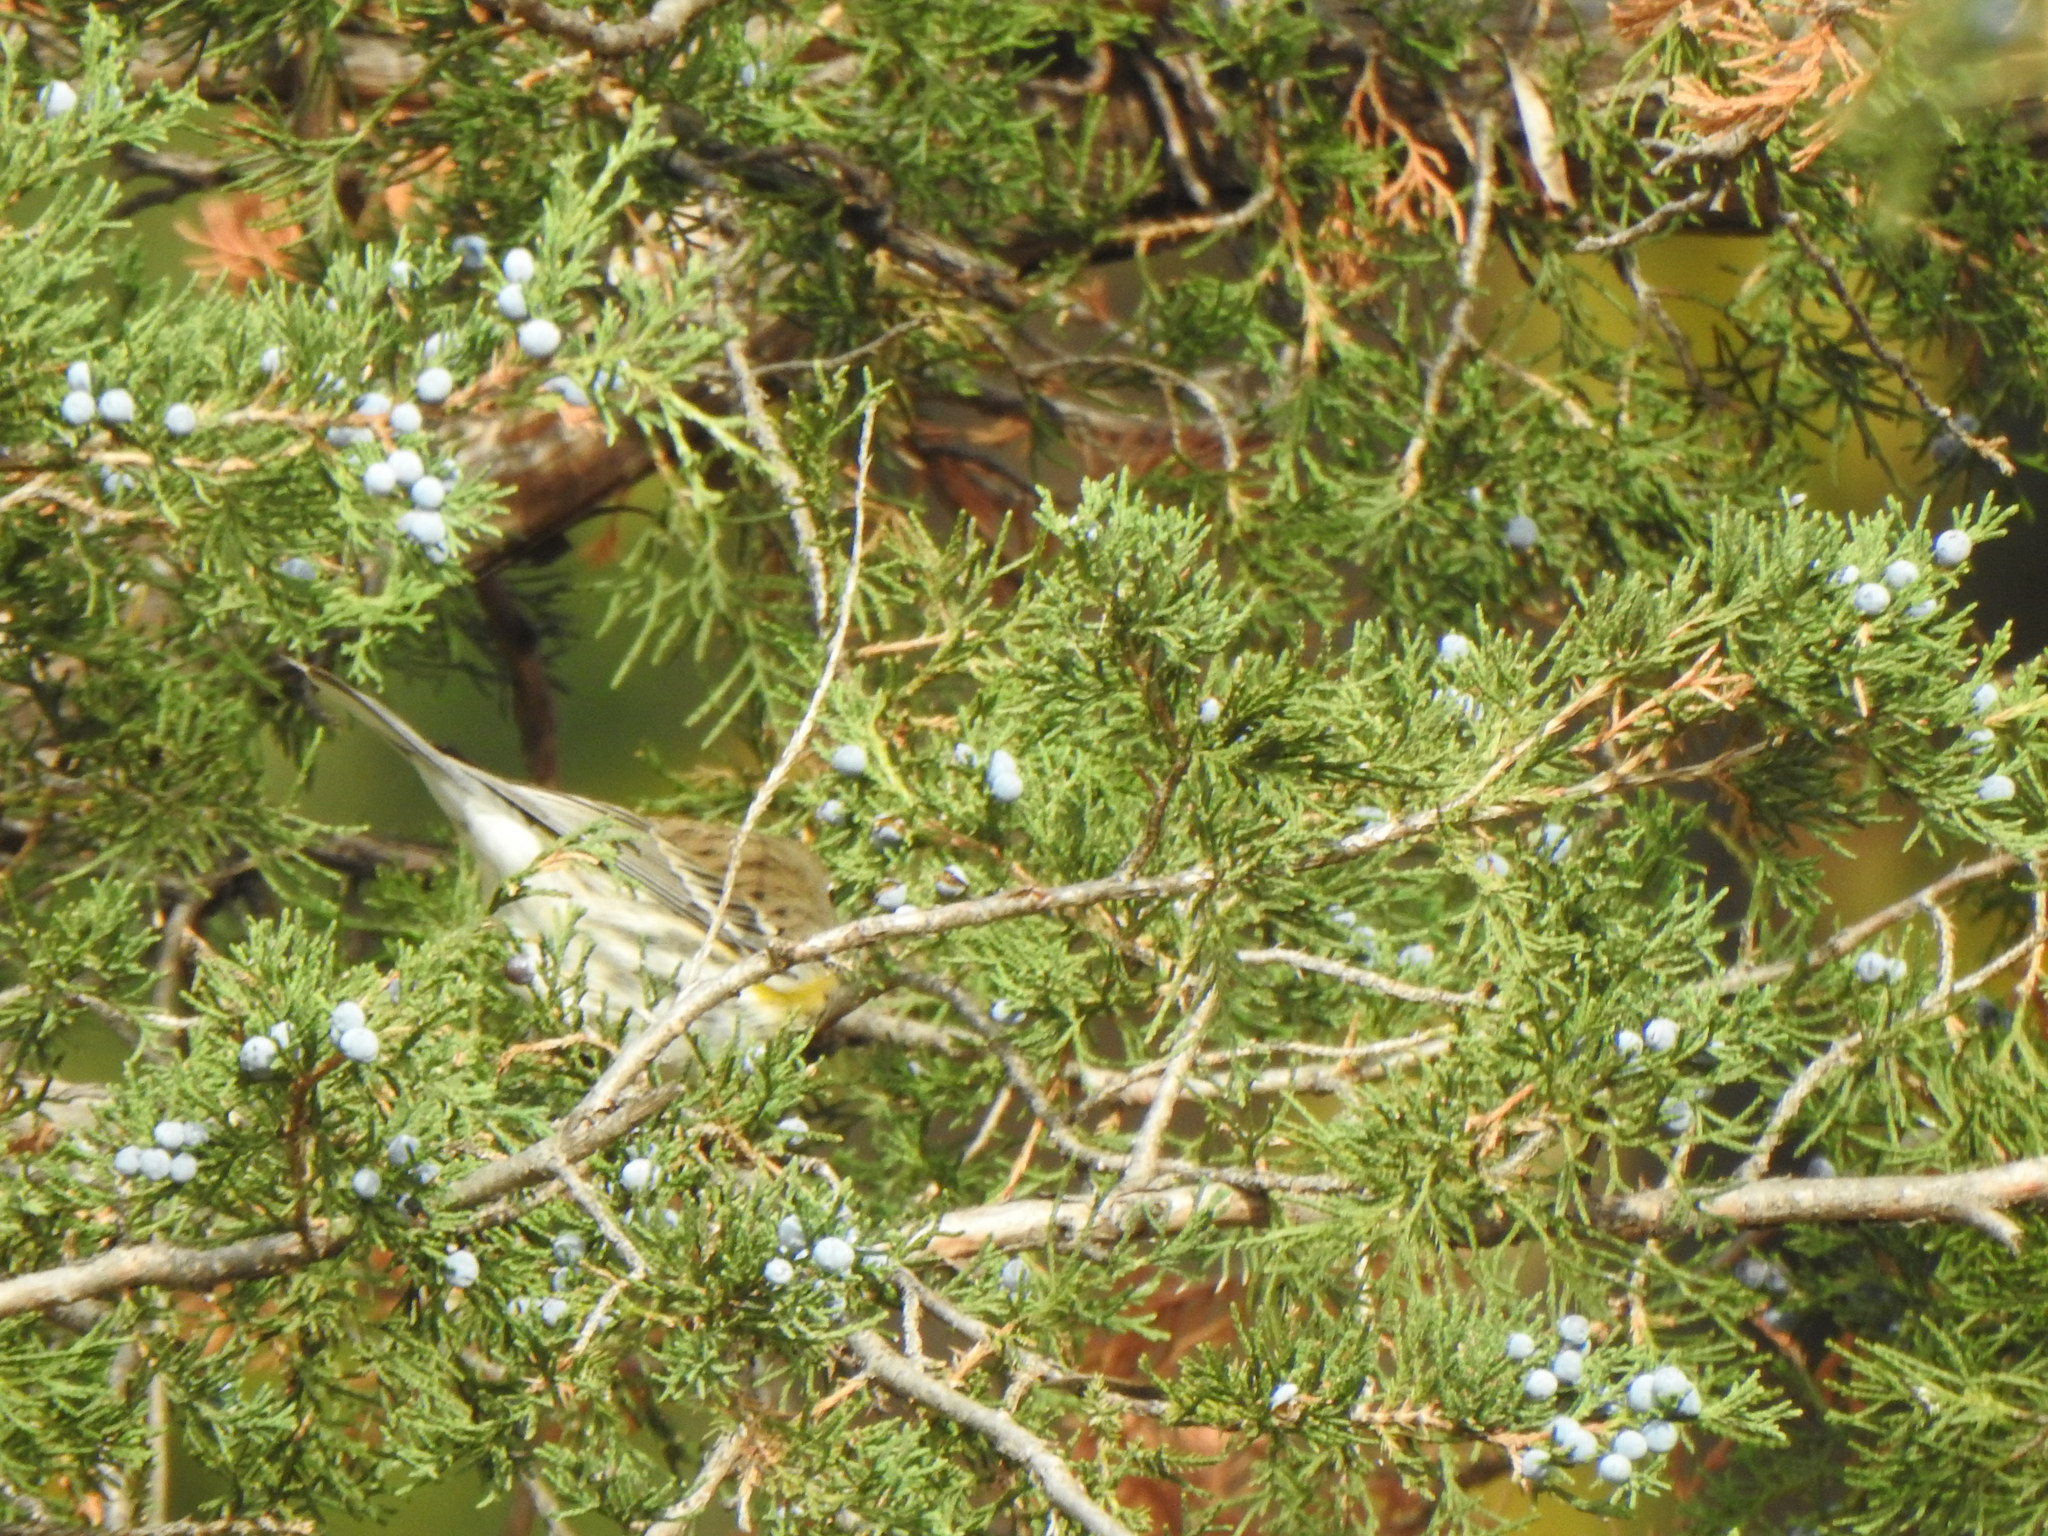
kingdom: Animalia
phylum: Chordata
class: Aves
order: Passeriformes
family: Parulidae
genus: Setophaga
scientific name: Setophaga coronata
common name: Myrtle warbler
